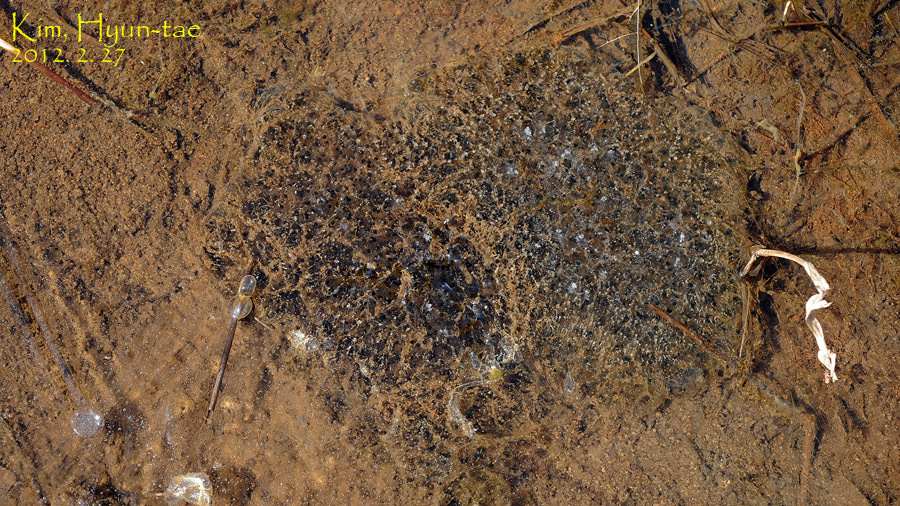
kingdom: Animalia
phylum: Chordata
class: Amphibia
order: Anura
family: Ranidae
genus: Rana
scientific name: Rana uenoi
